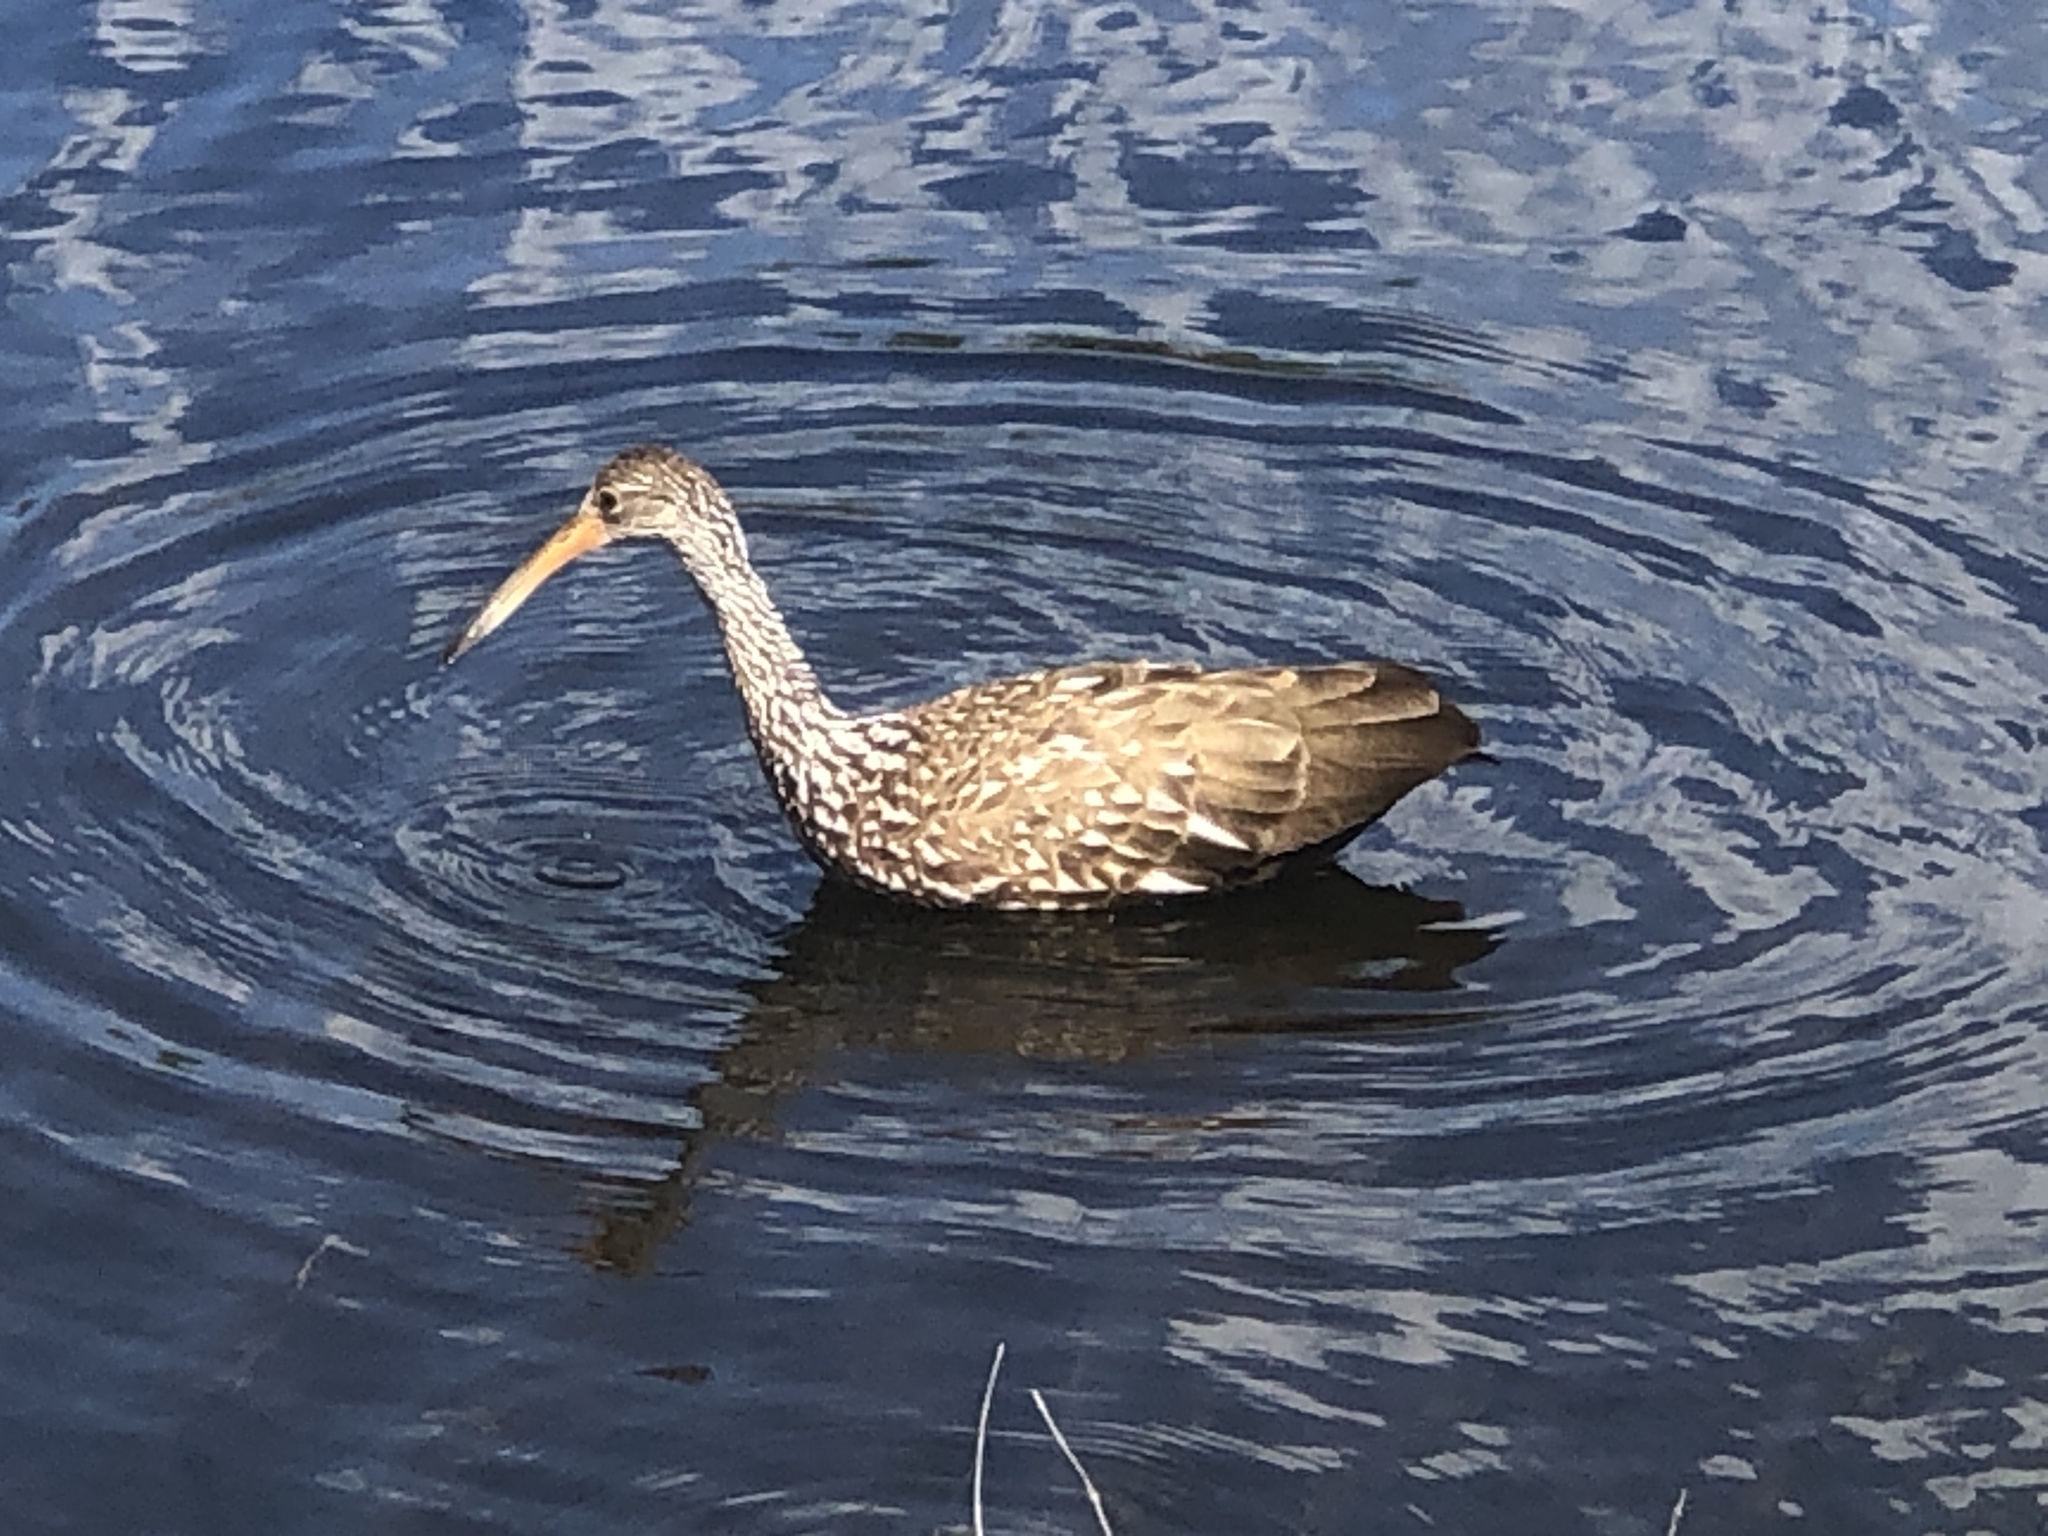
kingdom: Animalia
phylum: Chordata
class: Aves
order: Gruiformes
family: Aramidae
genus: Aramus
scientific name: Aramus guarauna
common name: Limpkin
